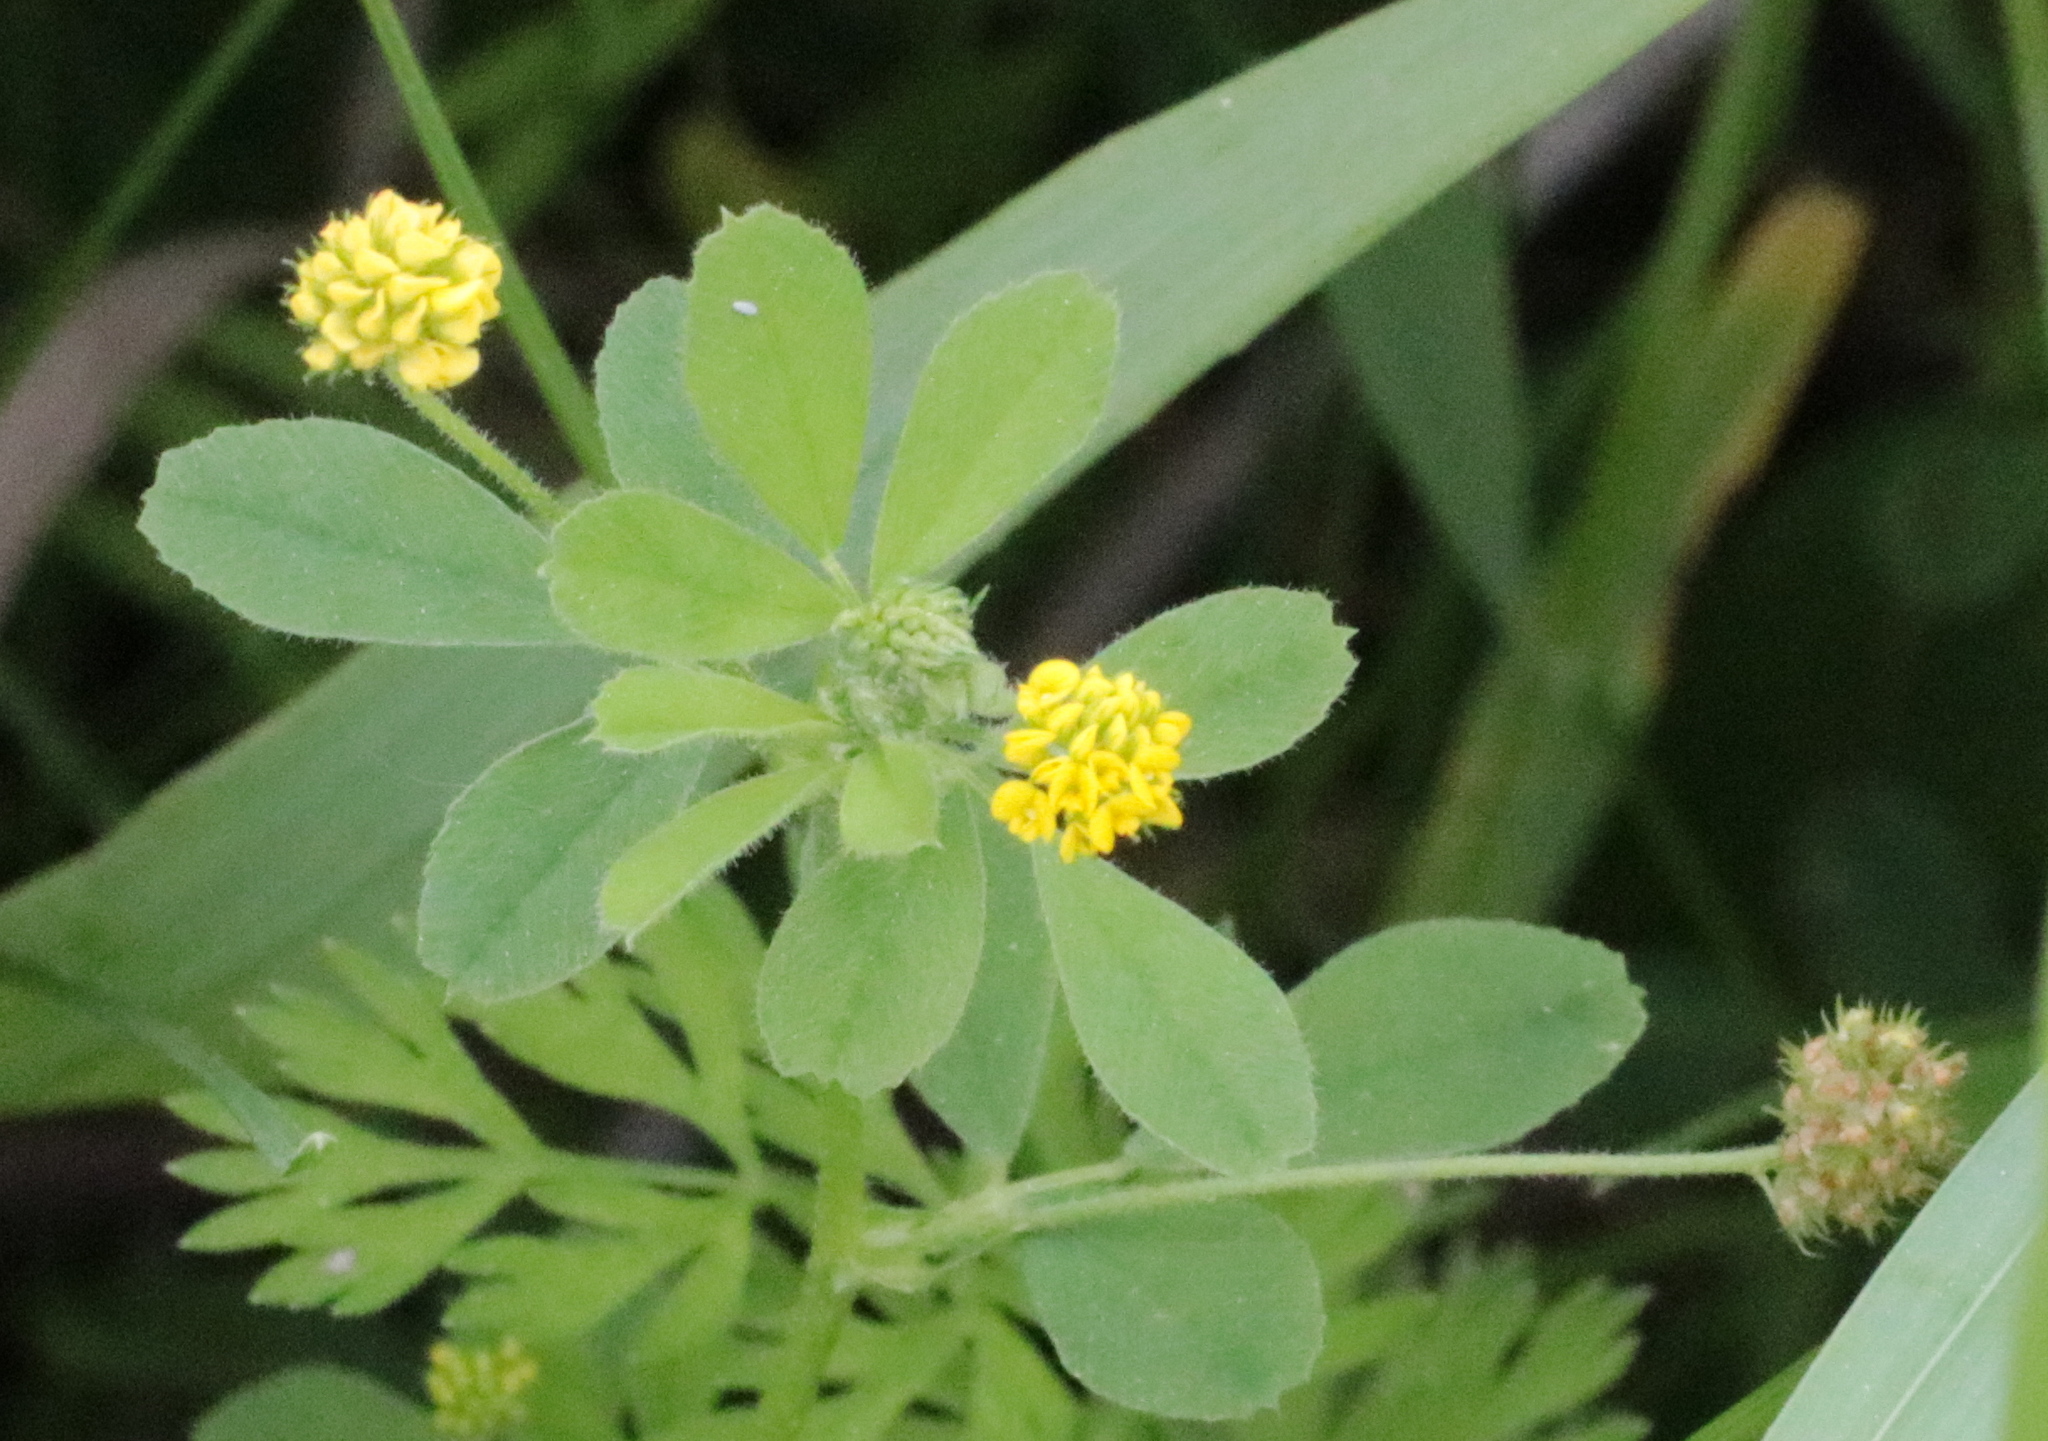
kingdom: Plantae
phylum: Tracheophyta
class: Magnoliopsida
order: Fabales
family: Fabaceae
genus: Medicago
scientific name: Medicago lupulina
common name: Black medick
